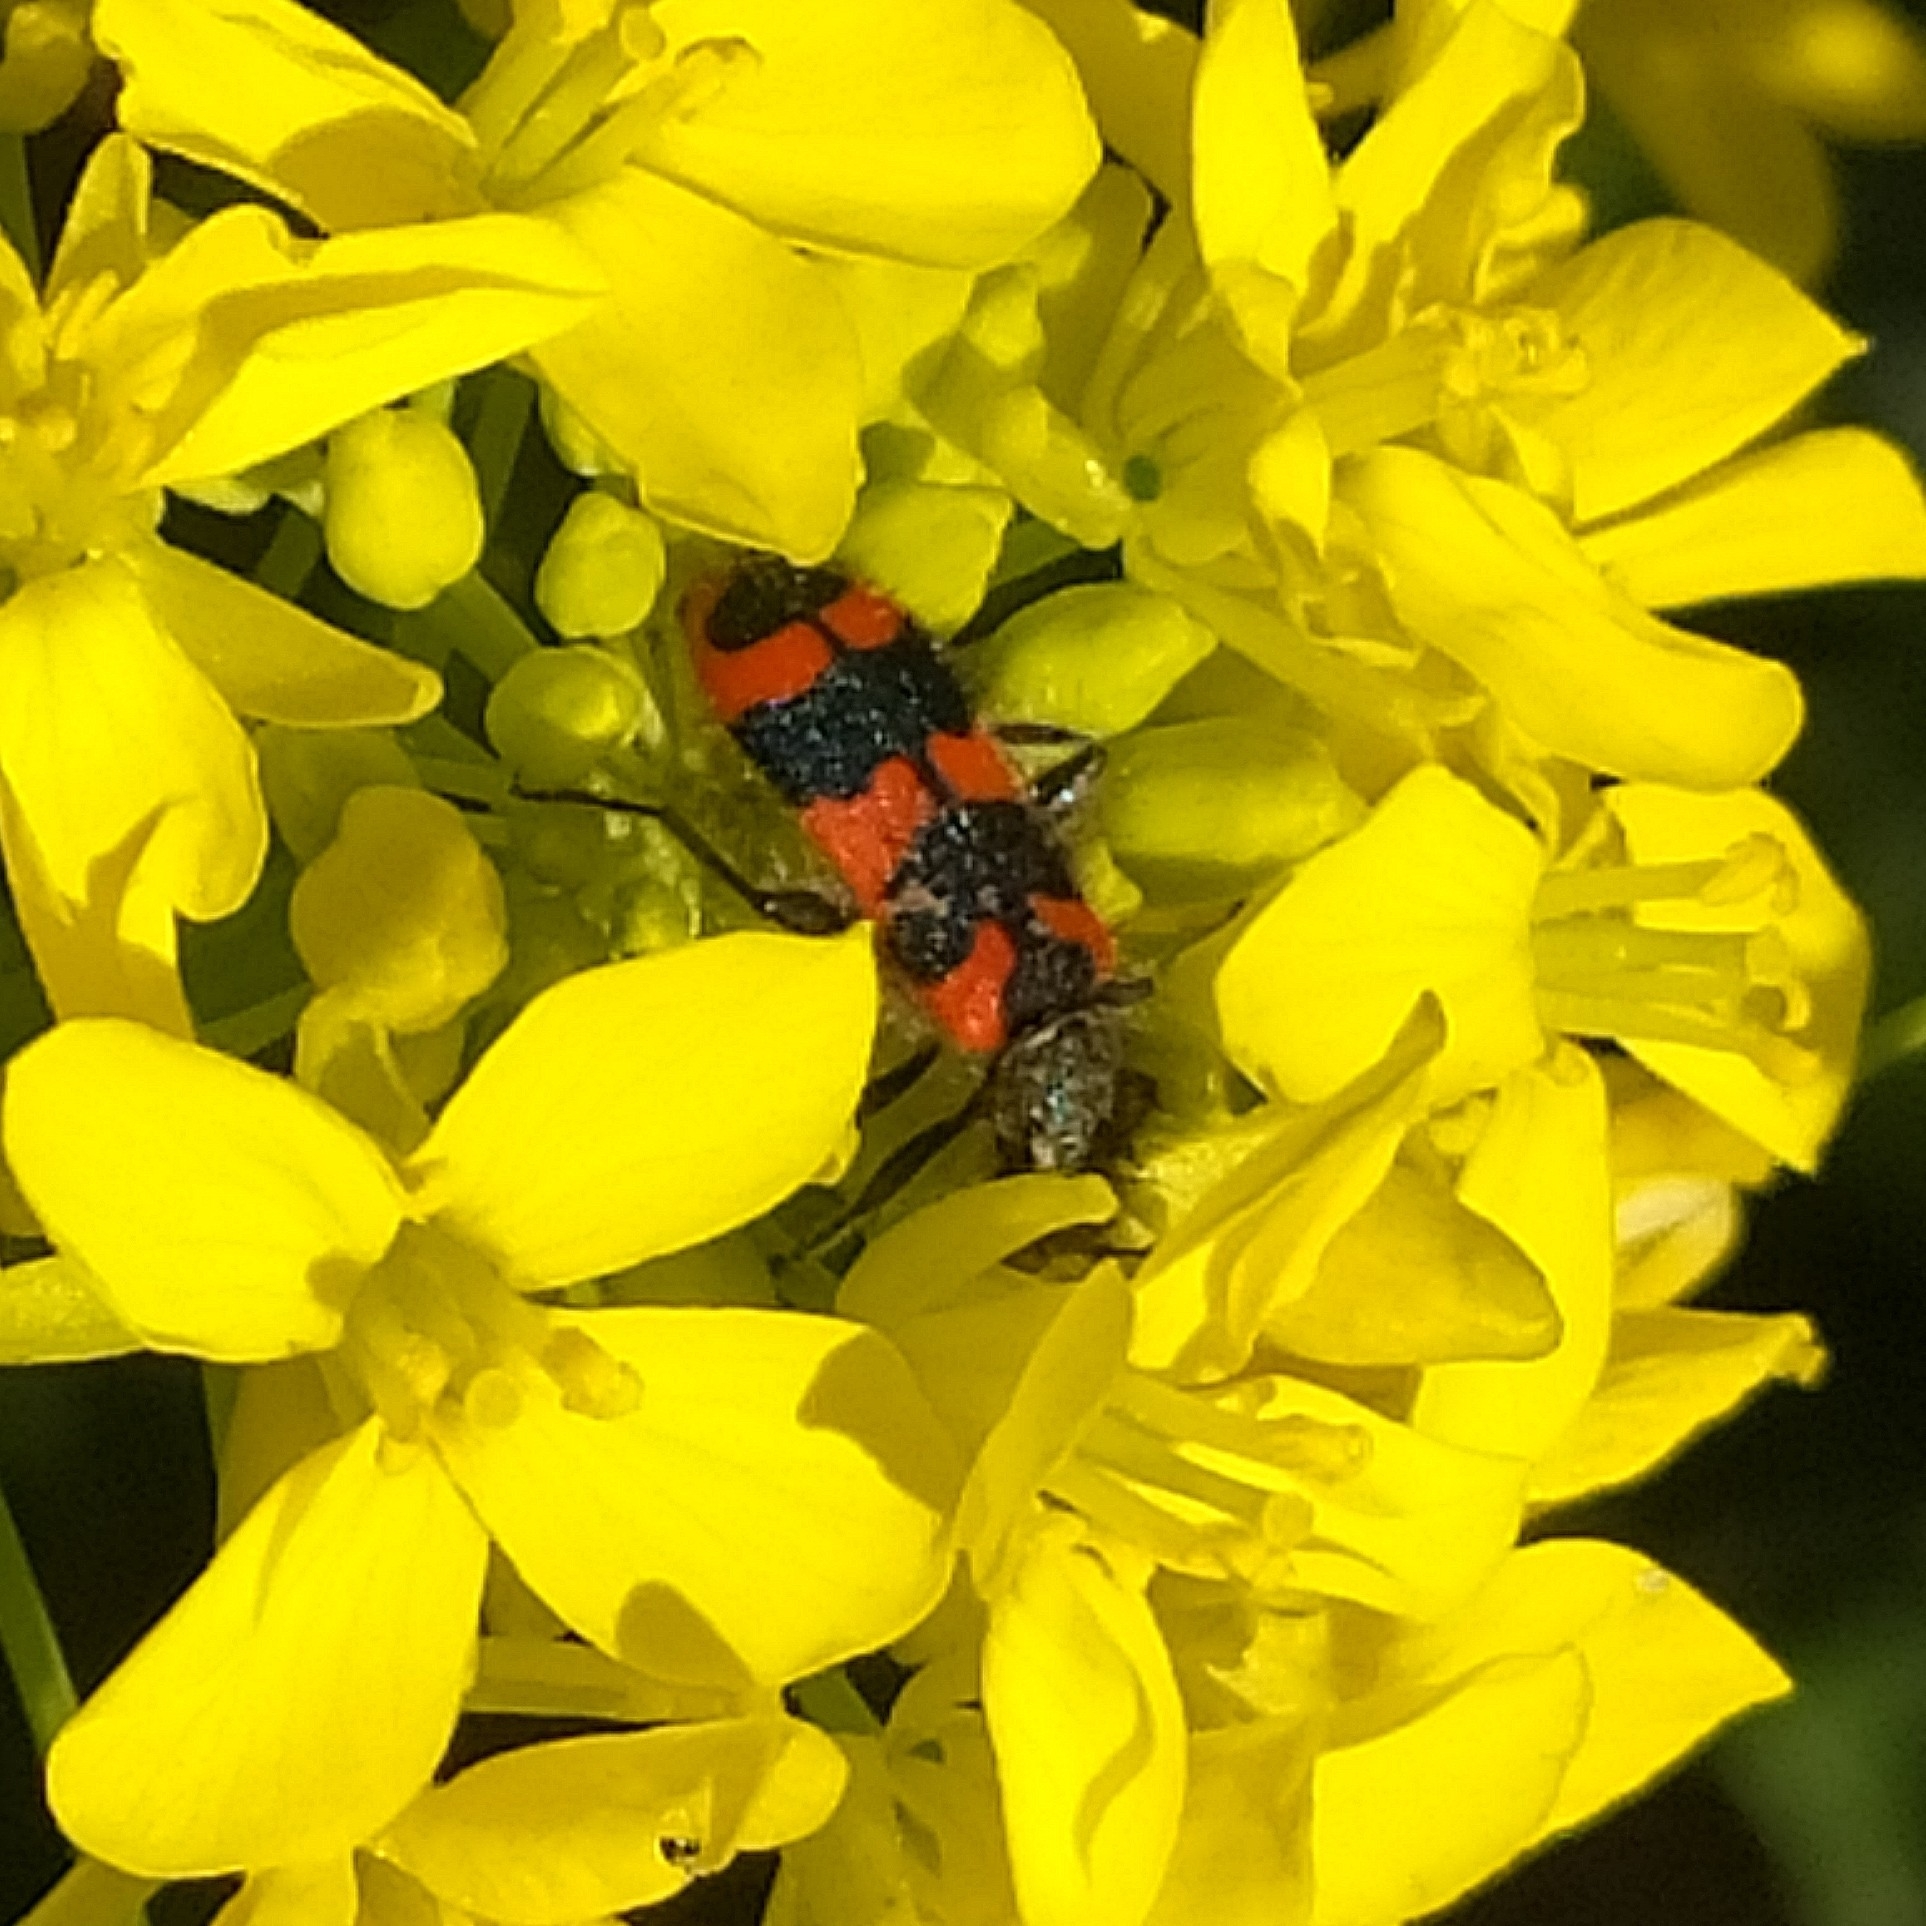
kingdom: Animalia
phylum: Arthropoda
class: Insecta
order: Coleoptera
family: Cleridae
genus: Trichodes
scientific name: Trichodes alvearius
